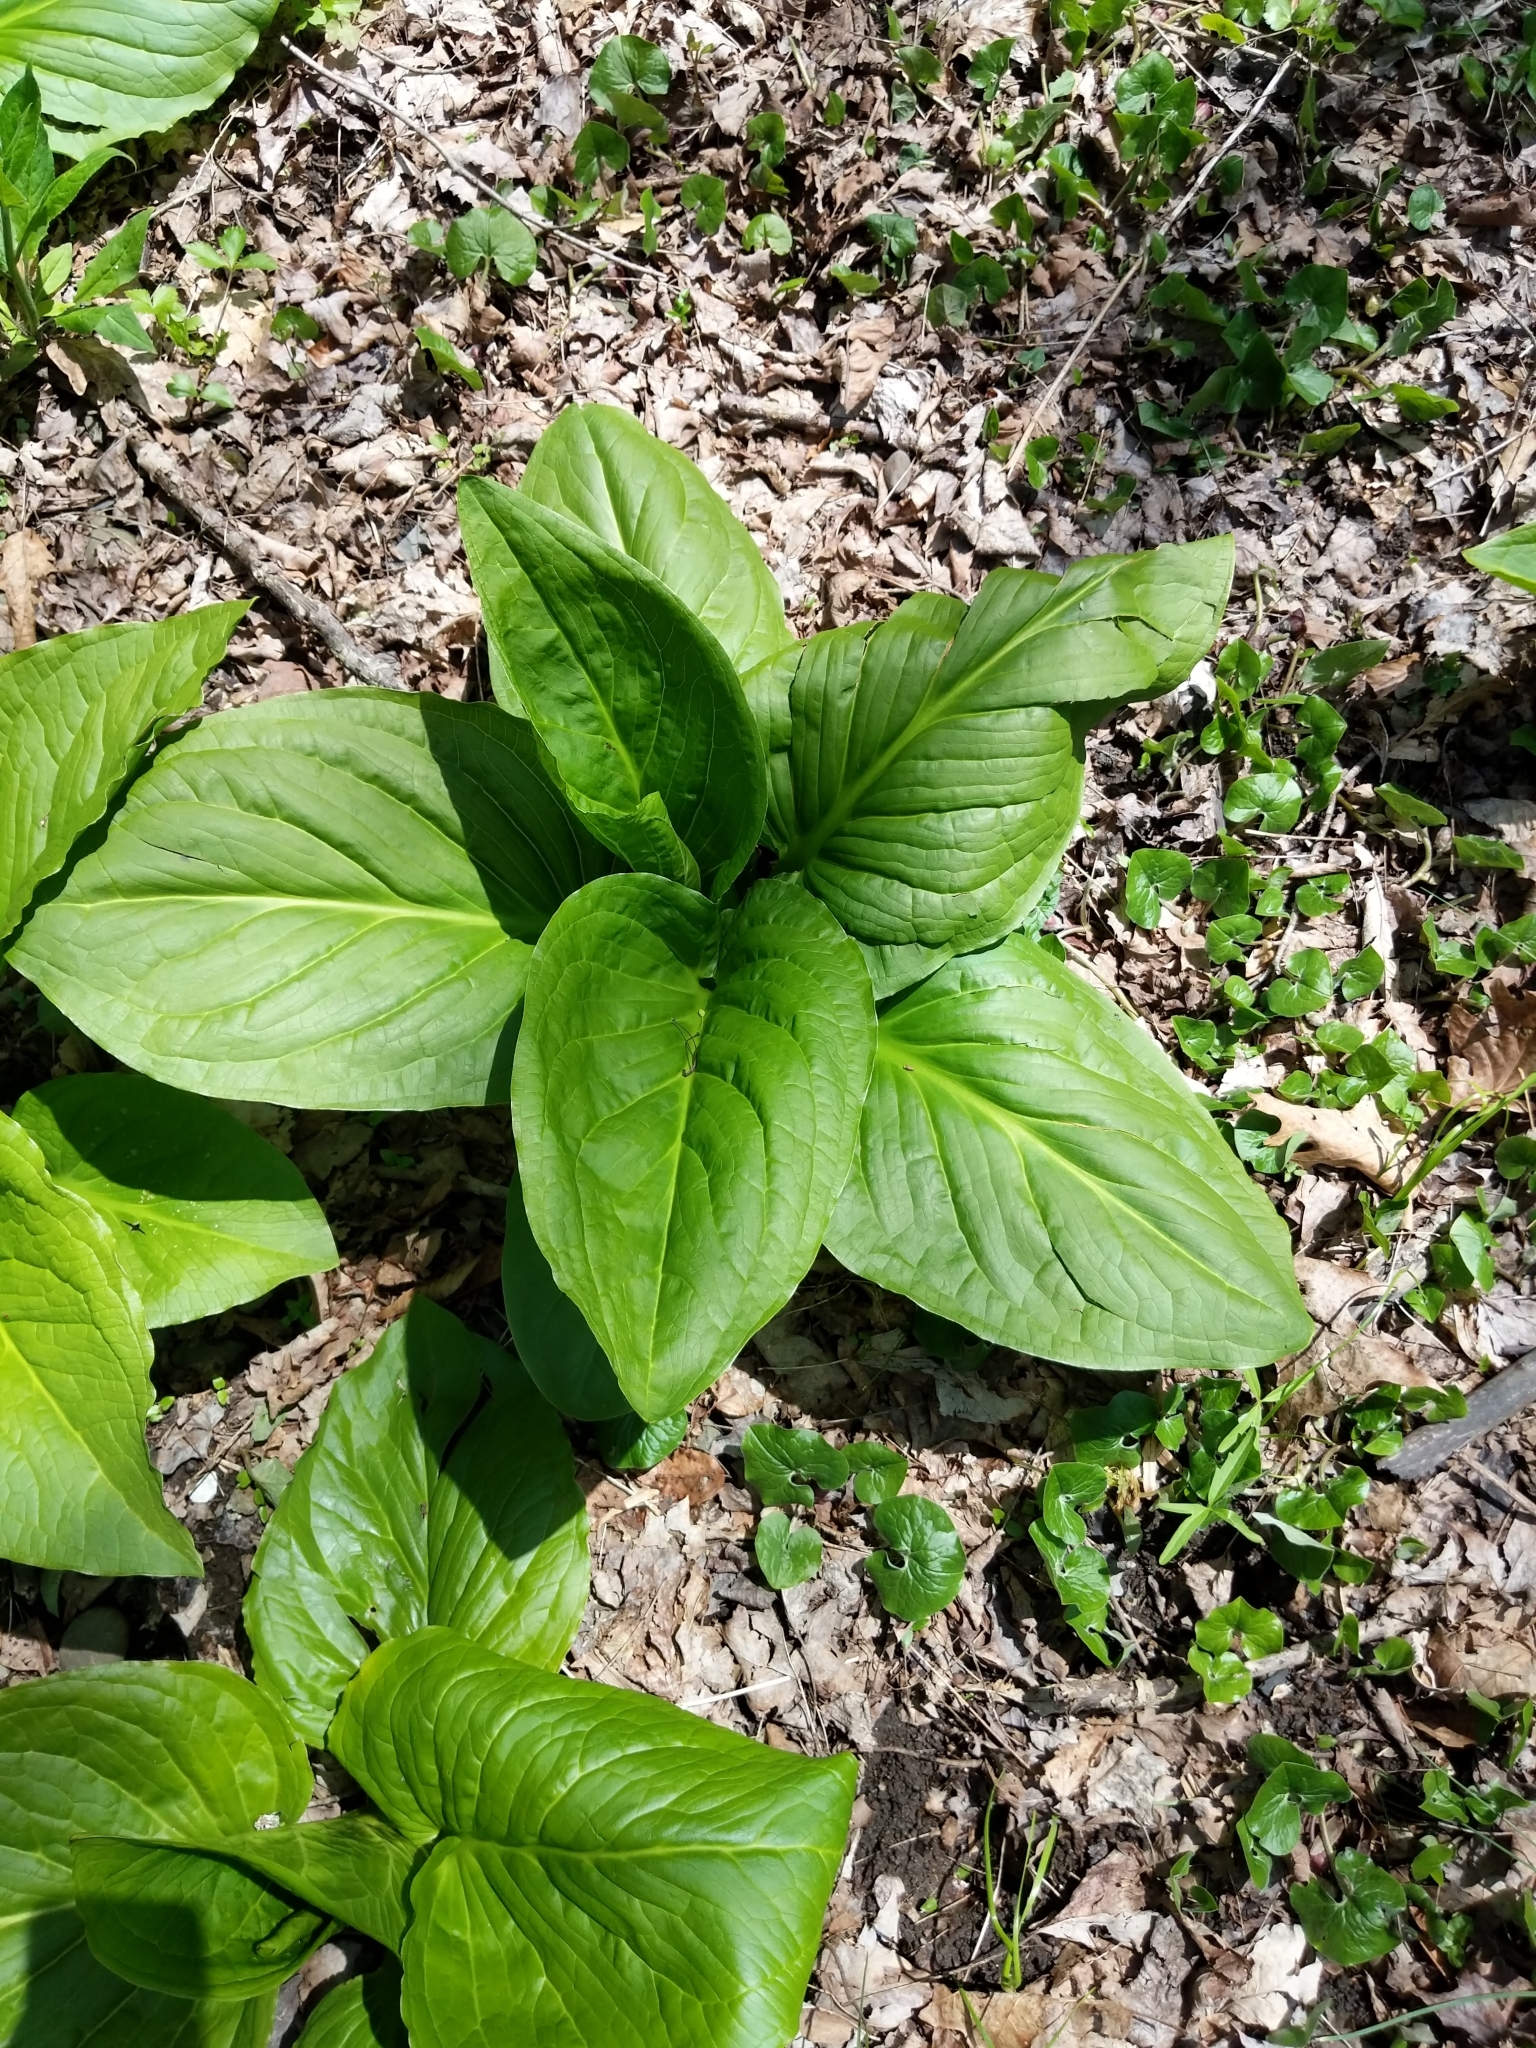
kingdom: Plantae
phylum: Tracheophyta
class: Liliopsida
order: Alismatales
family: Araceae
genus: Symplocarpus
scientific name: Symplocarpus foetidus
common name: Eastern skunk cabbage
